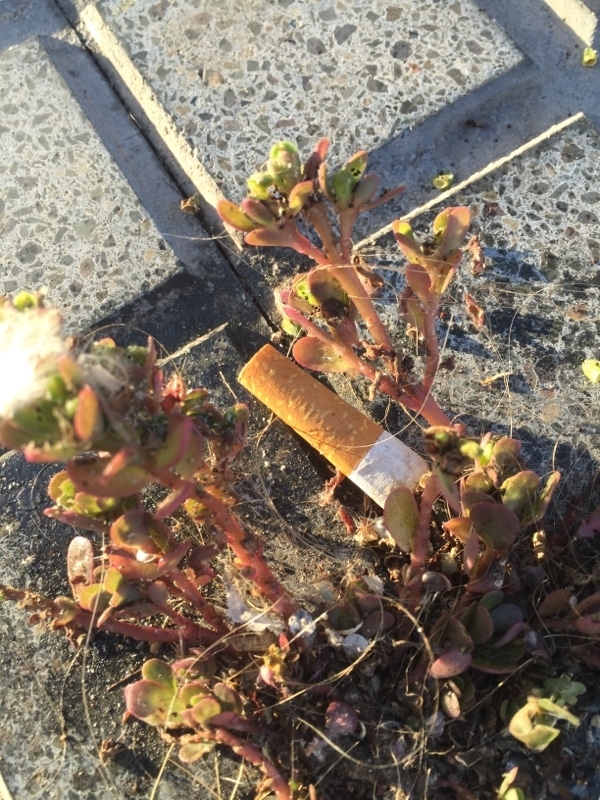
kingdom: Plantae
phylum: Tracheophyta
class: Magnoliopsida
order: Caryophyllales
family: Portulacaceae
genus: Portulaca
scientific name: Portulaca oleracea
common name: Common purslane
